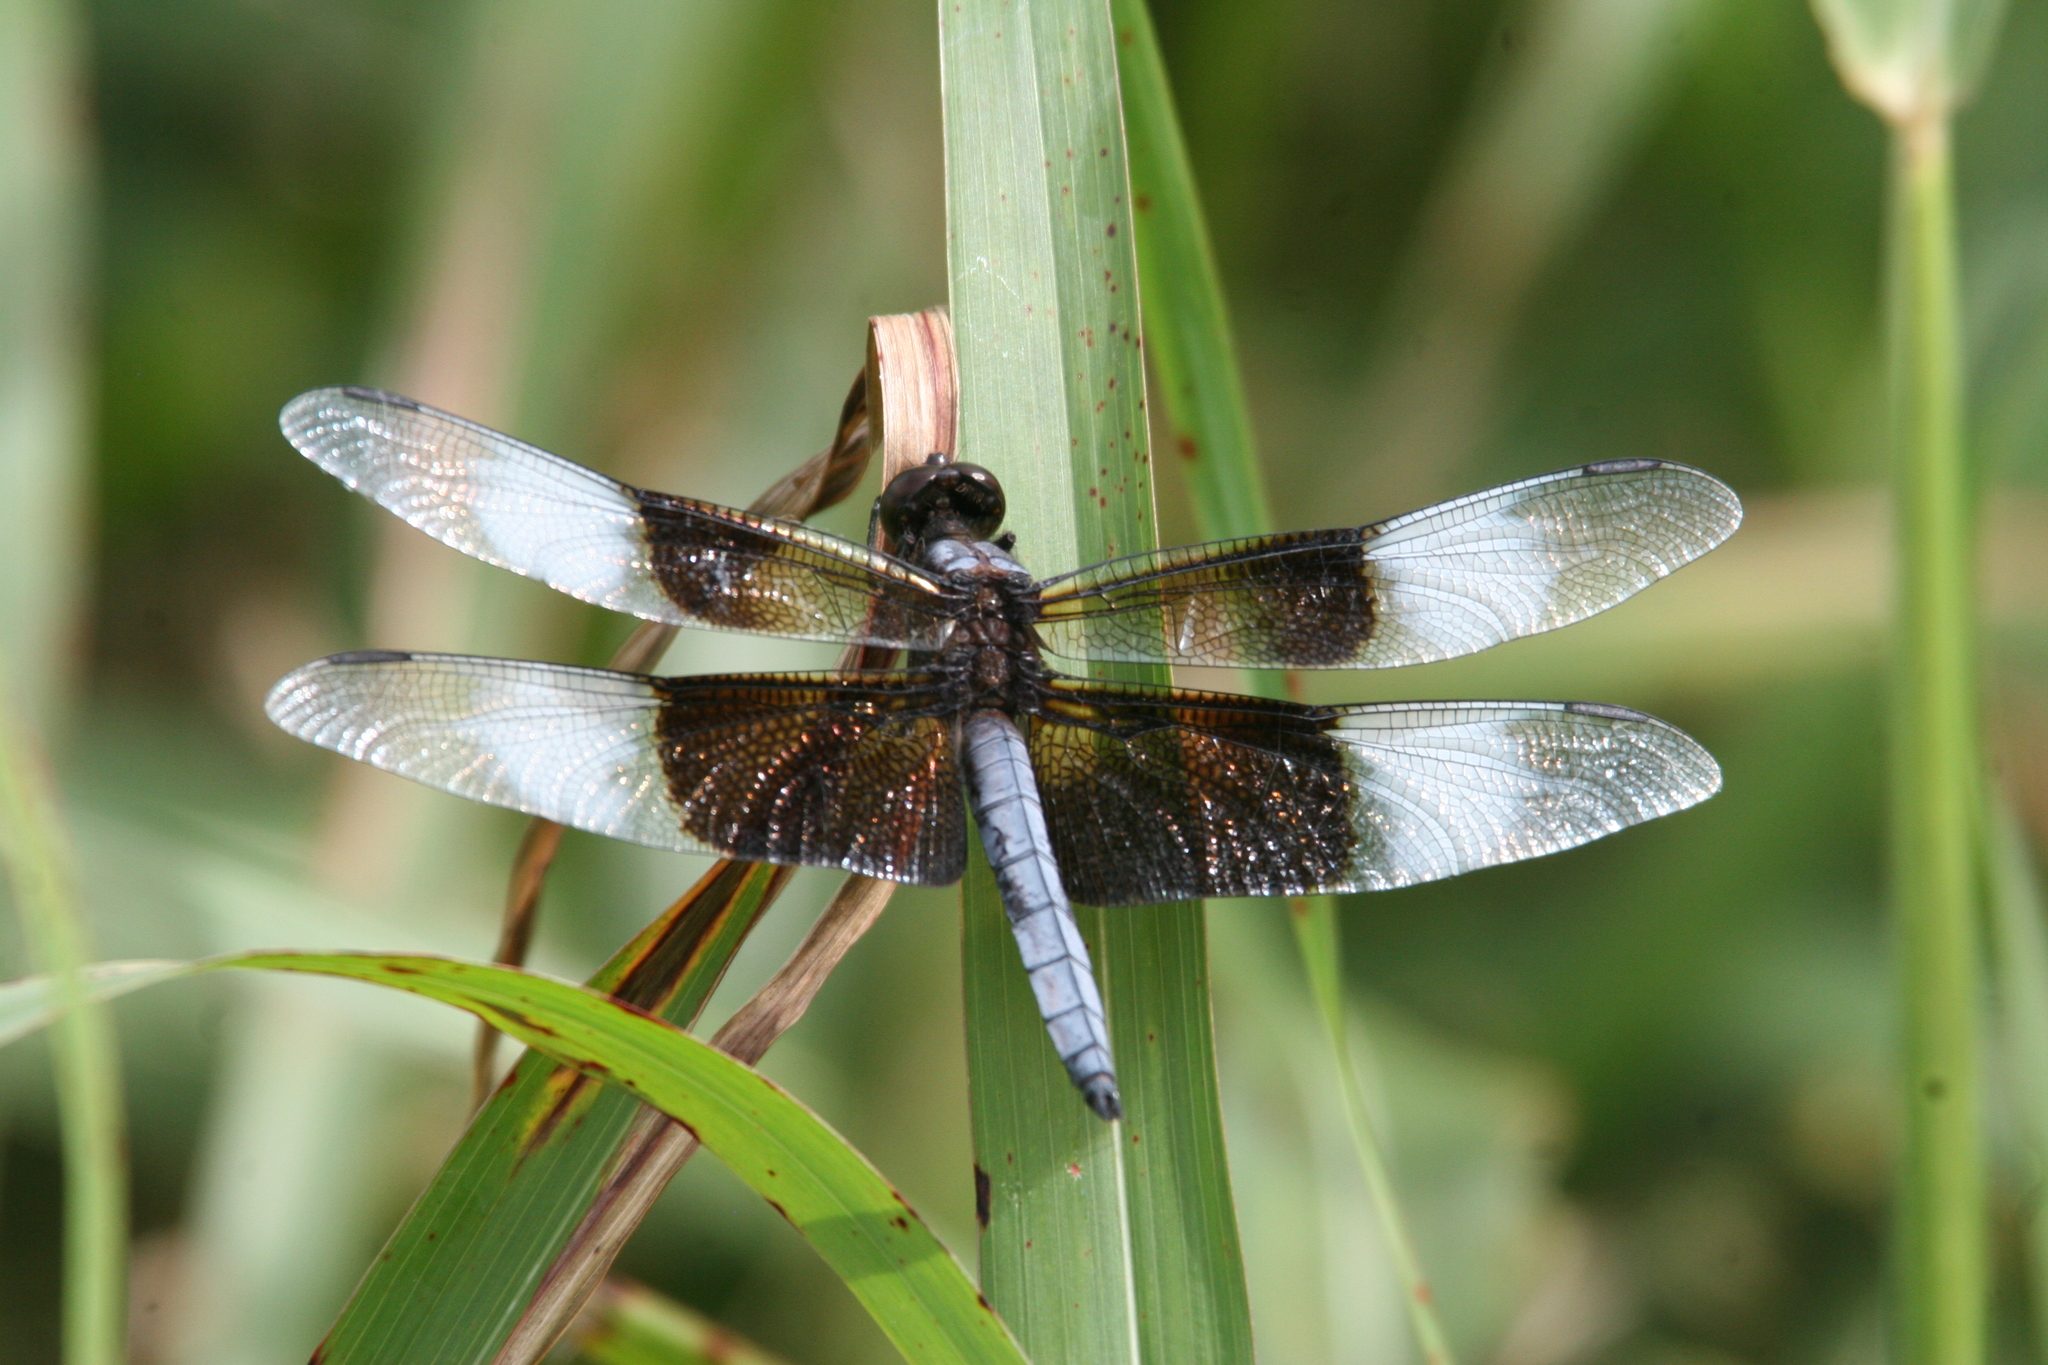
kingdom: Animalia
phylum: Arthropoda
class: Insecta
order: Odonata
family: Libellulidae
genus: Libellula
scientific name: Libellula luctuosa
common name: Widow skimmer
